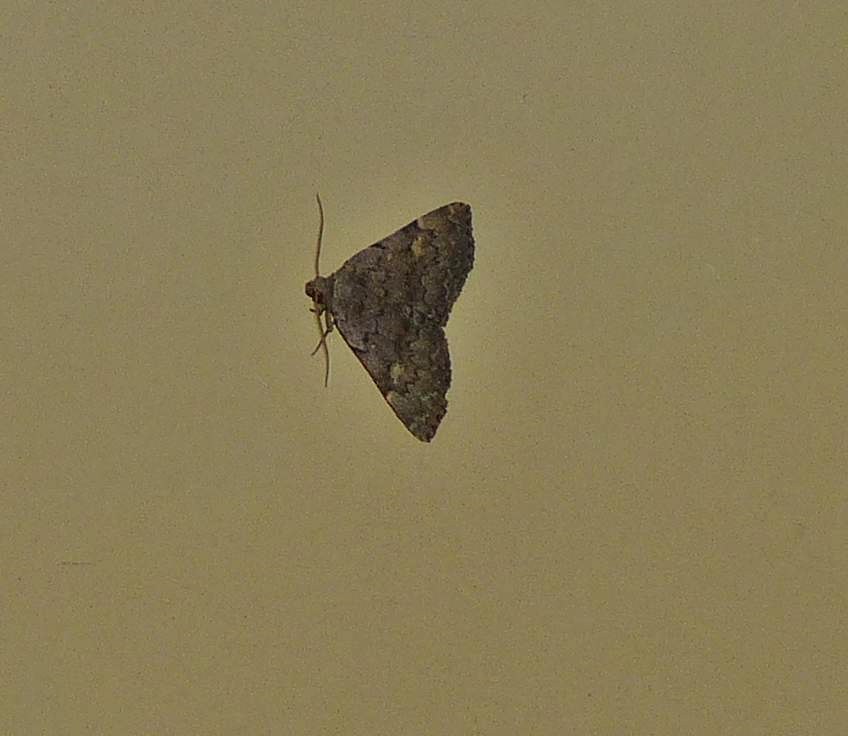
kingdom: Animalia
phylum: Arthropoda
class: Insecta
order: Lepidoptera
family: Erebidae
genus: Idia
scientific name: Idia aemula
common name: Common idia moth
